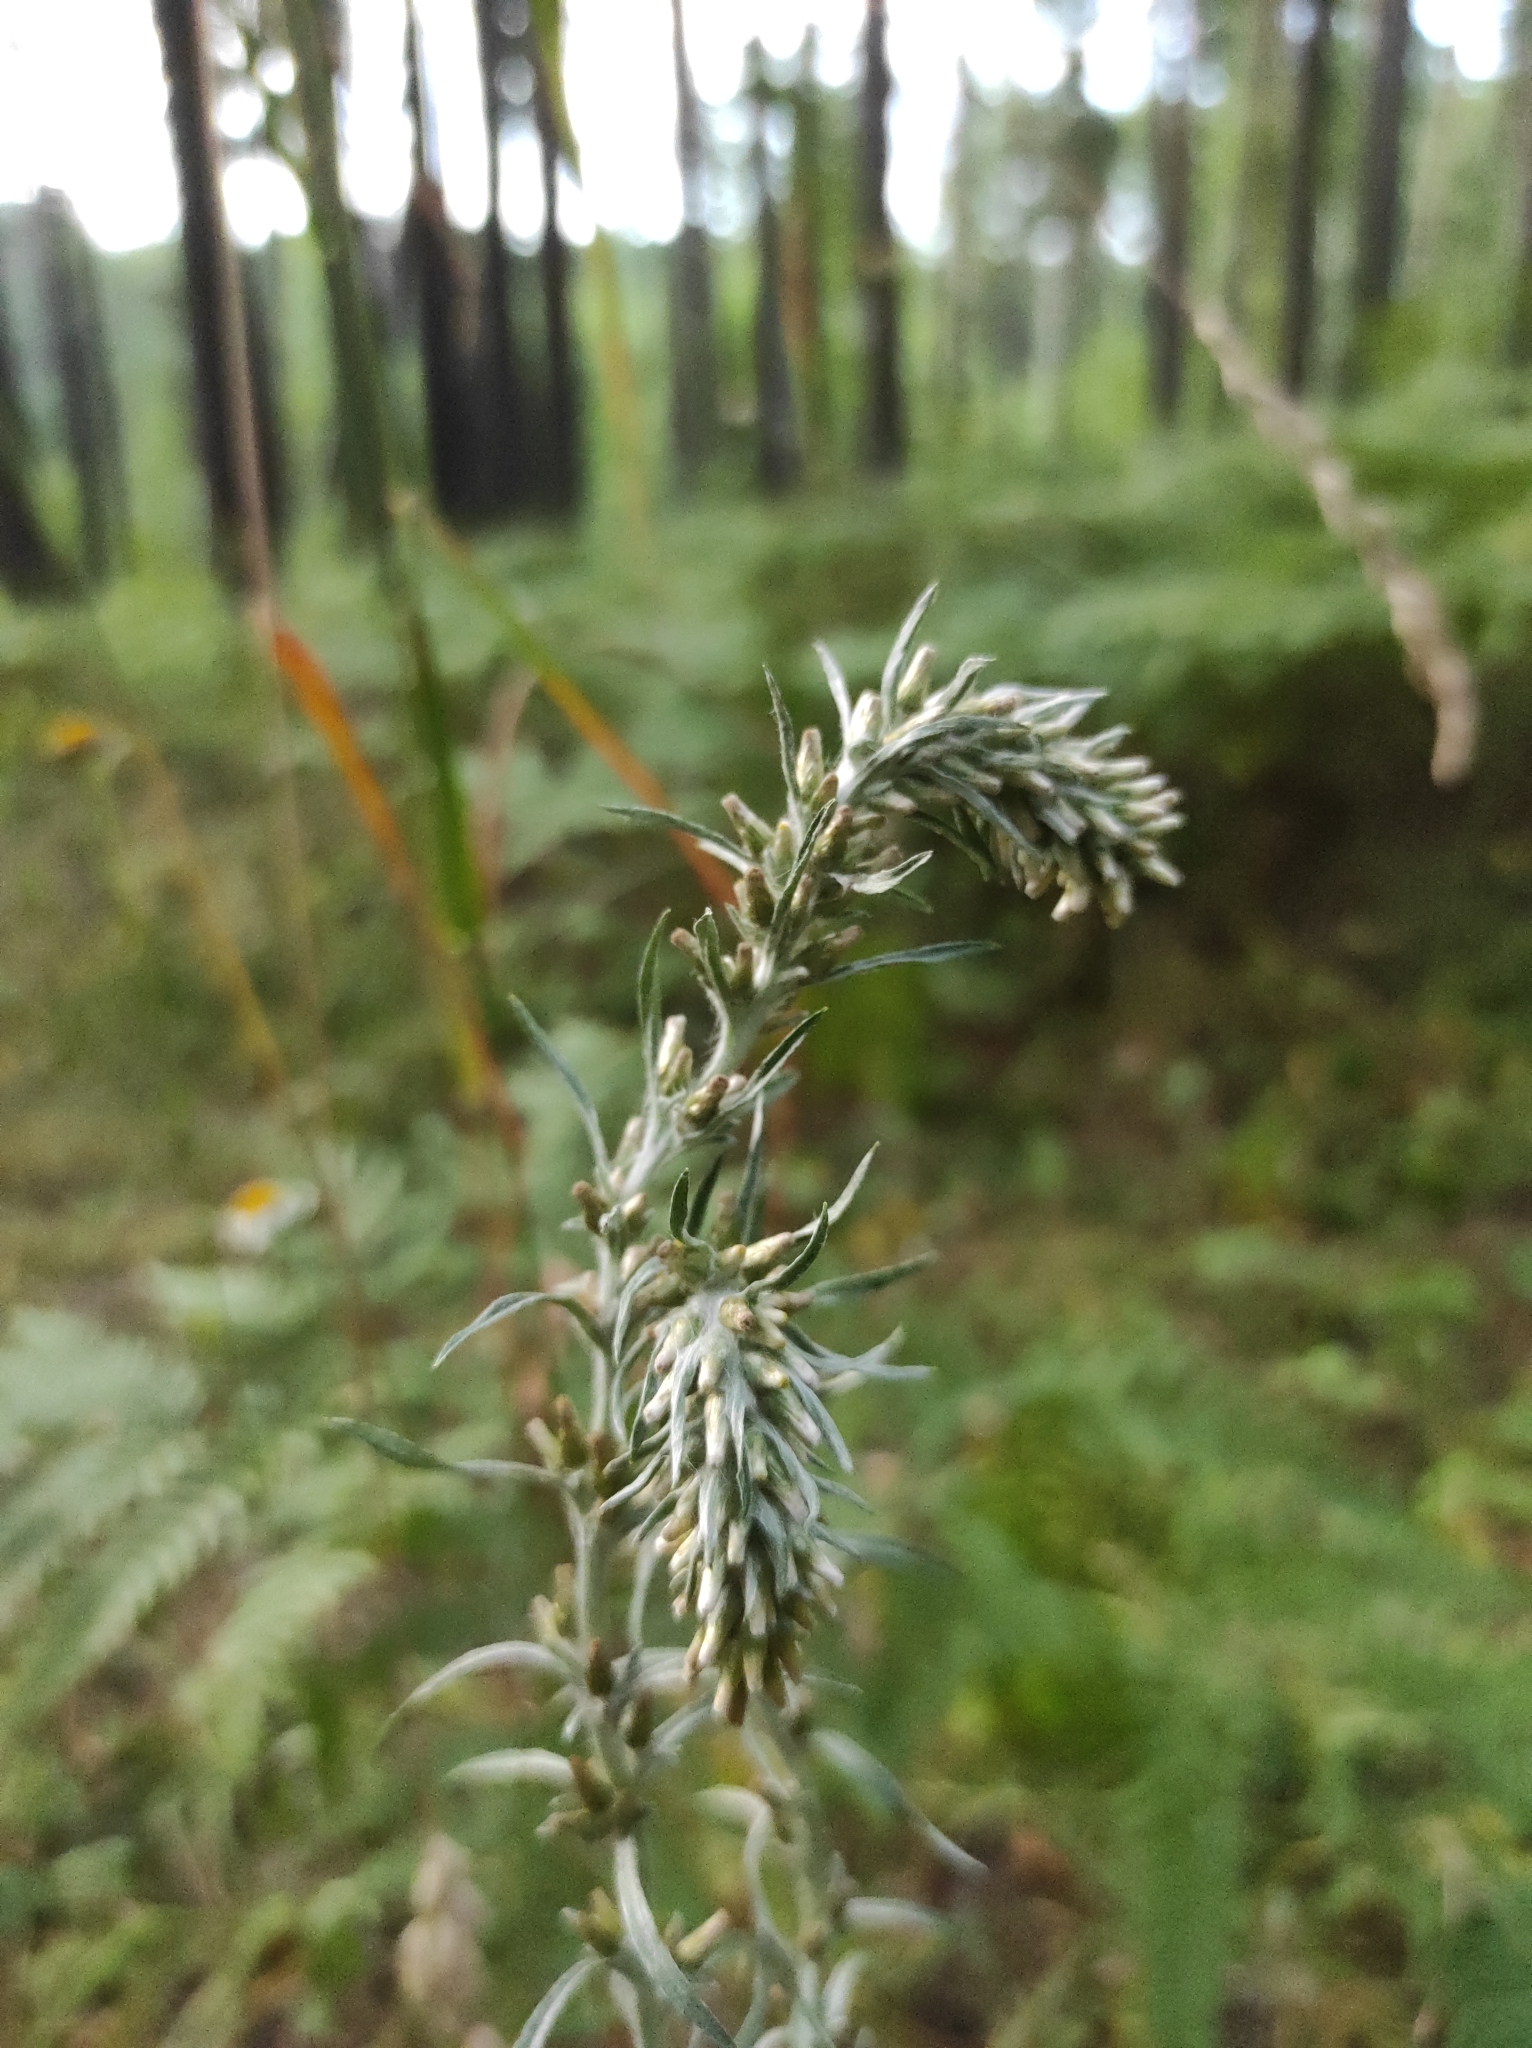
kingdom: Plantae
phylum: Tracheophyta
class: Magnoliopsida
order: Asterales
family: Asteraceae
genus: Omalotheca
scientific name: Omalotheca sylvatica
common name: Heath cudweed
